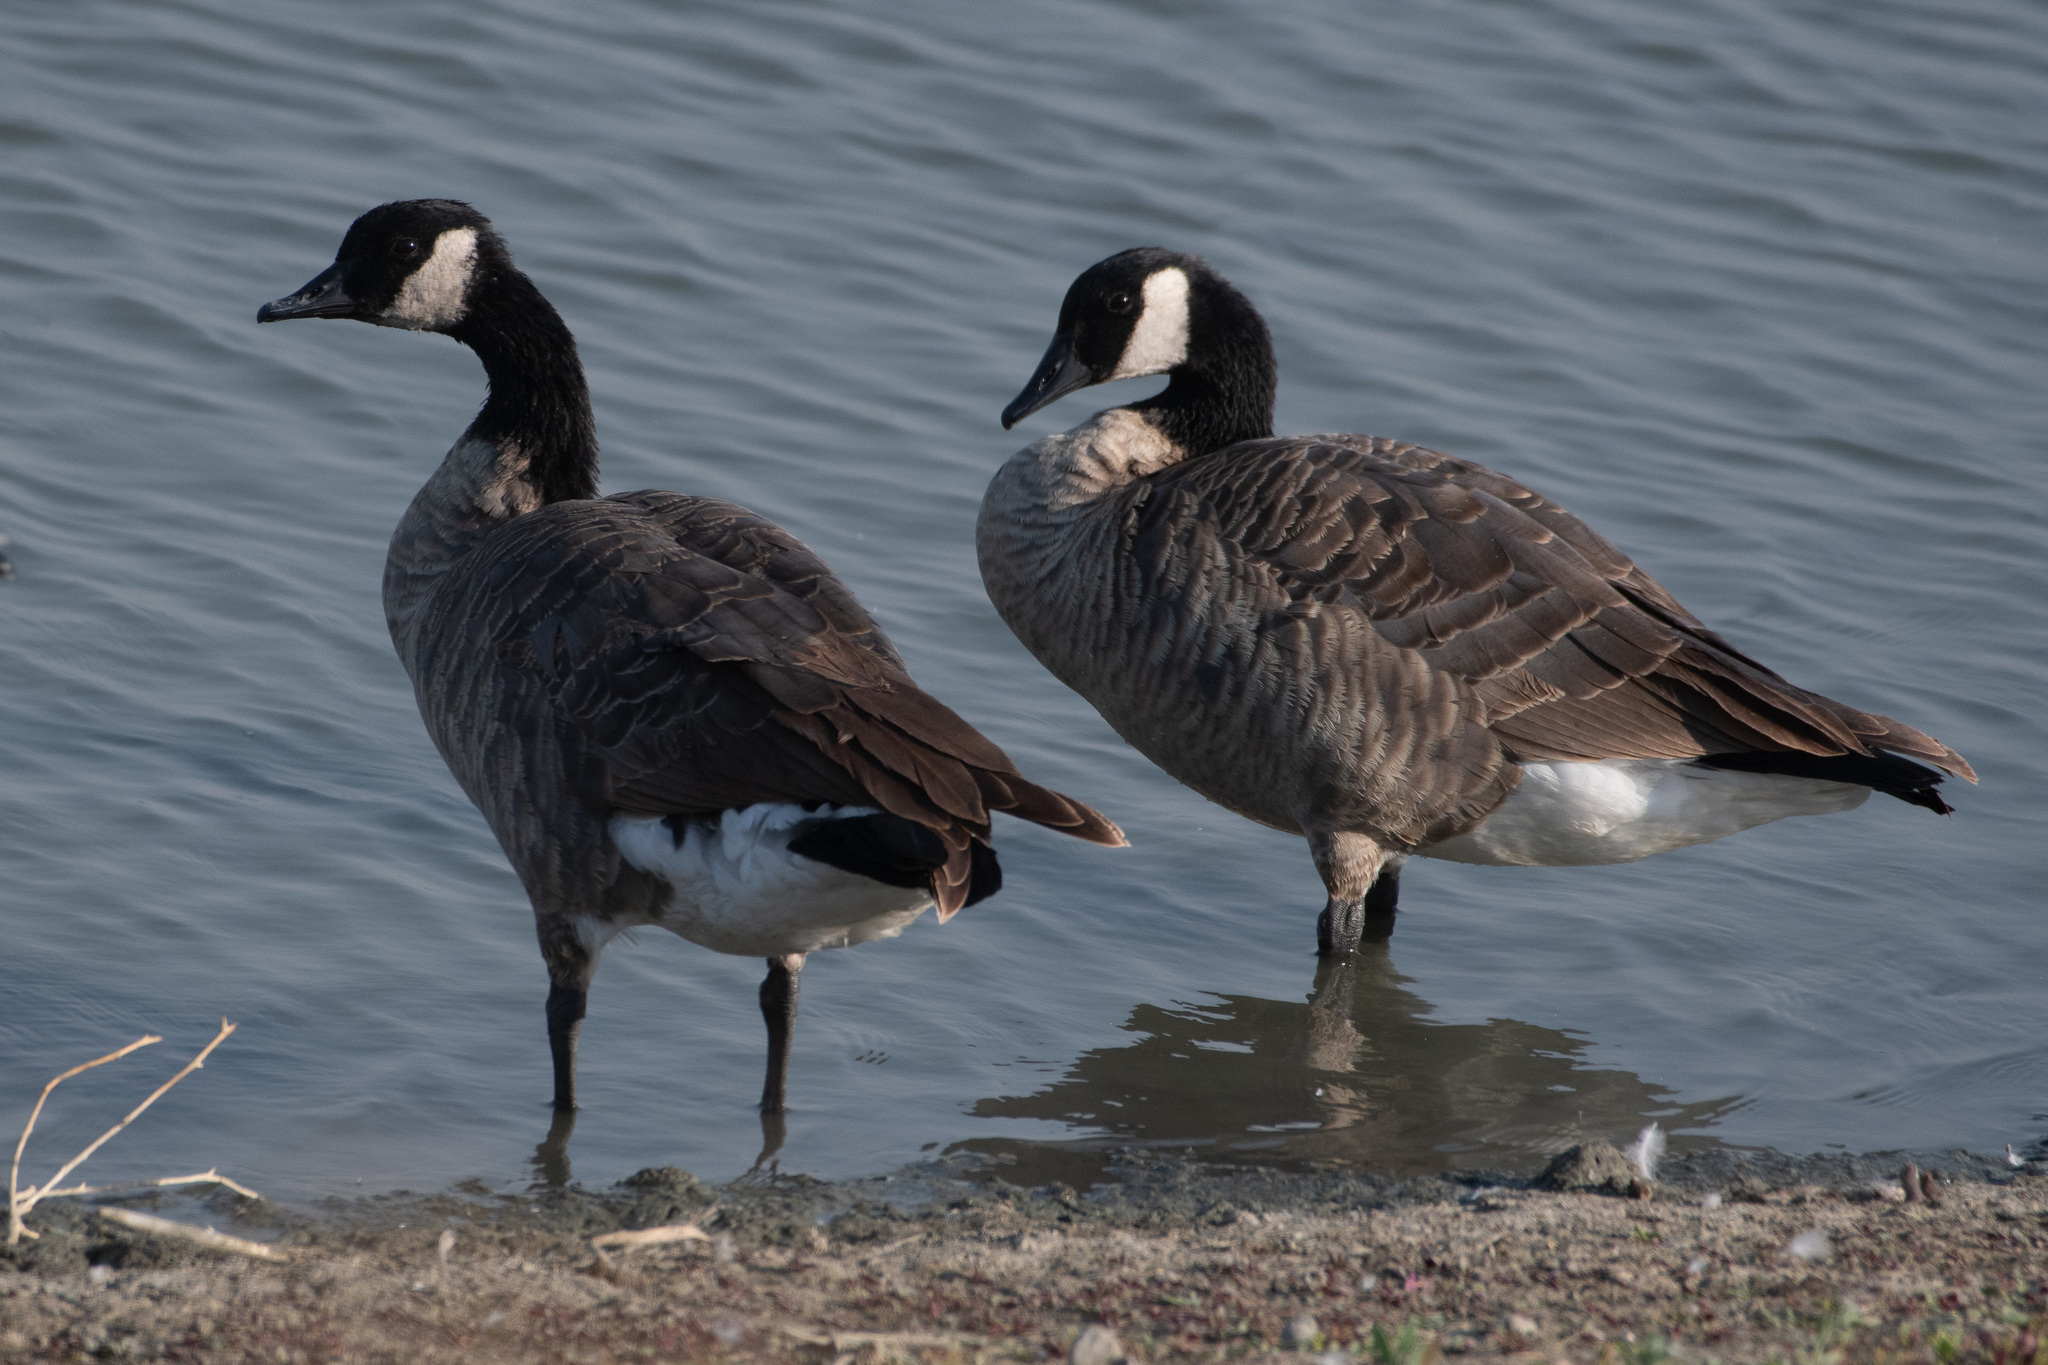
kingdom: Animalia
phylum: Chordata
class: Aves
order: Anseriformes
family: Anatidae
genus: Branta
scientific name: Branta hutchinsii
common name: Cackling goose
